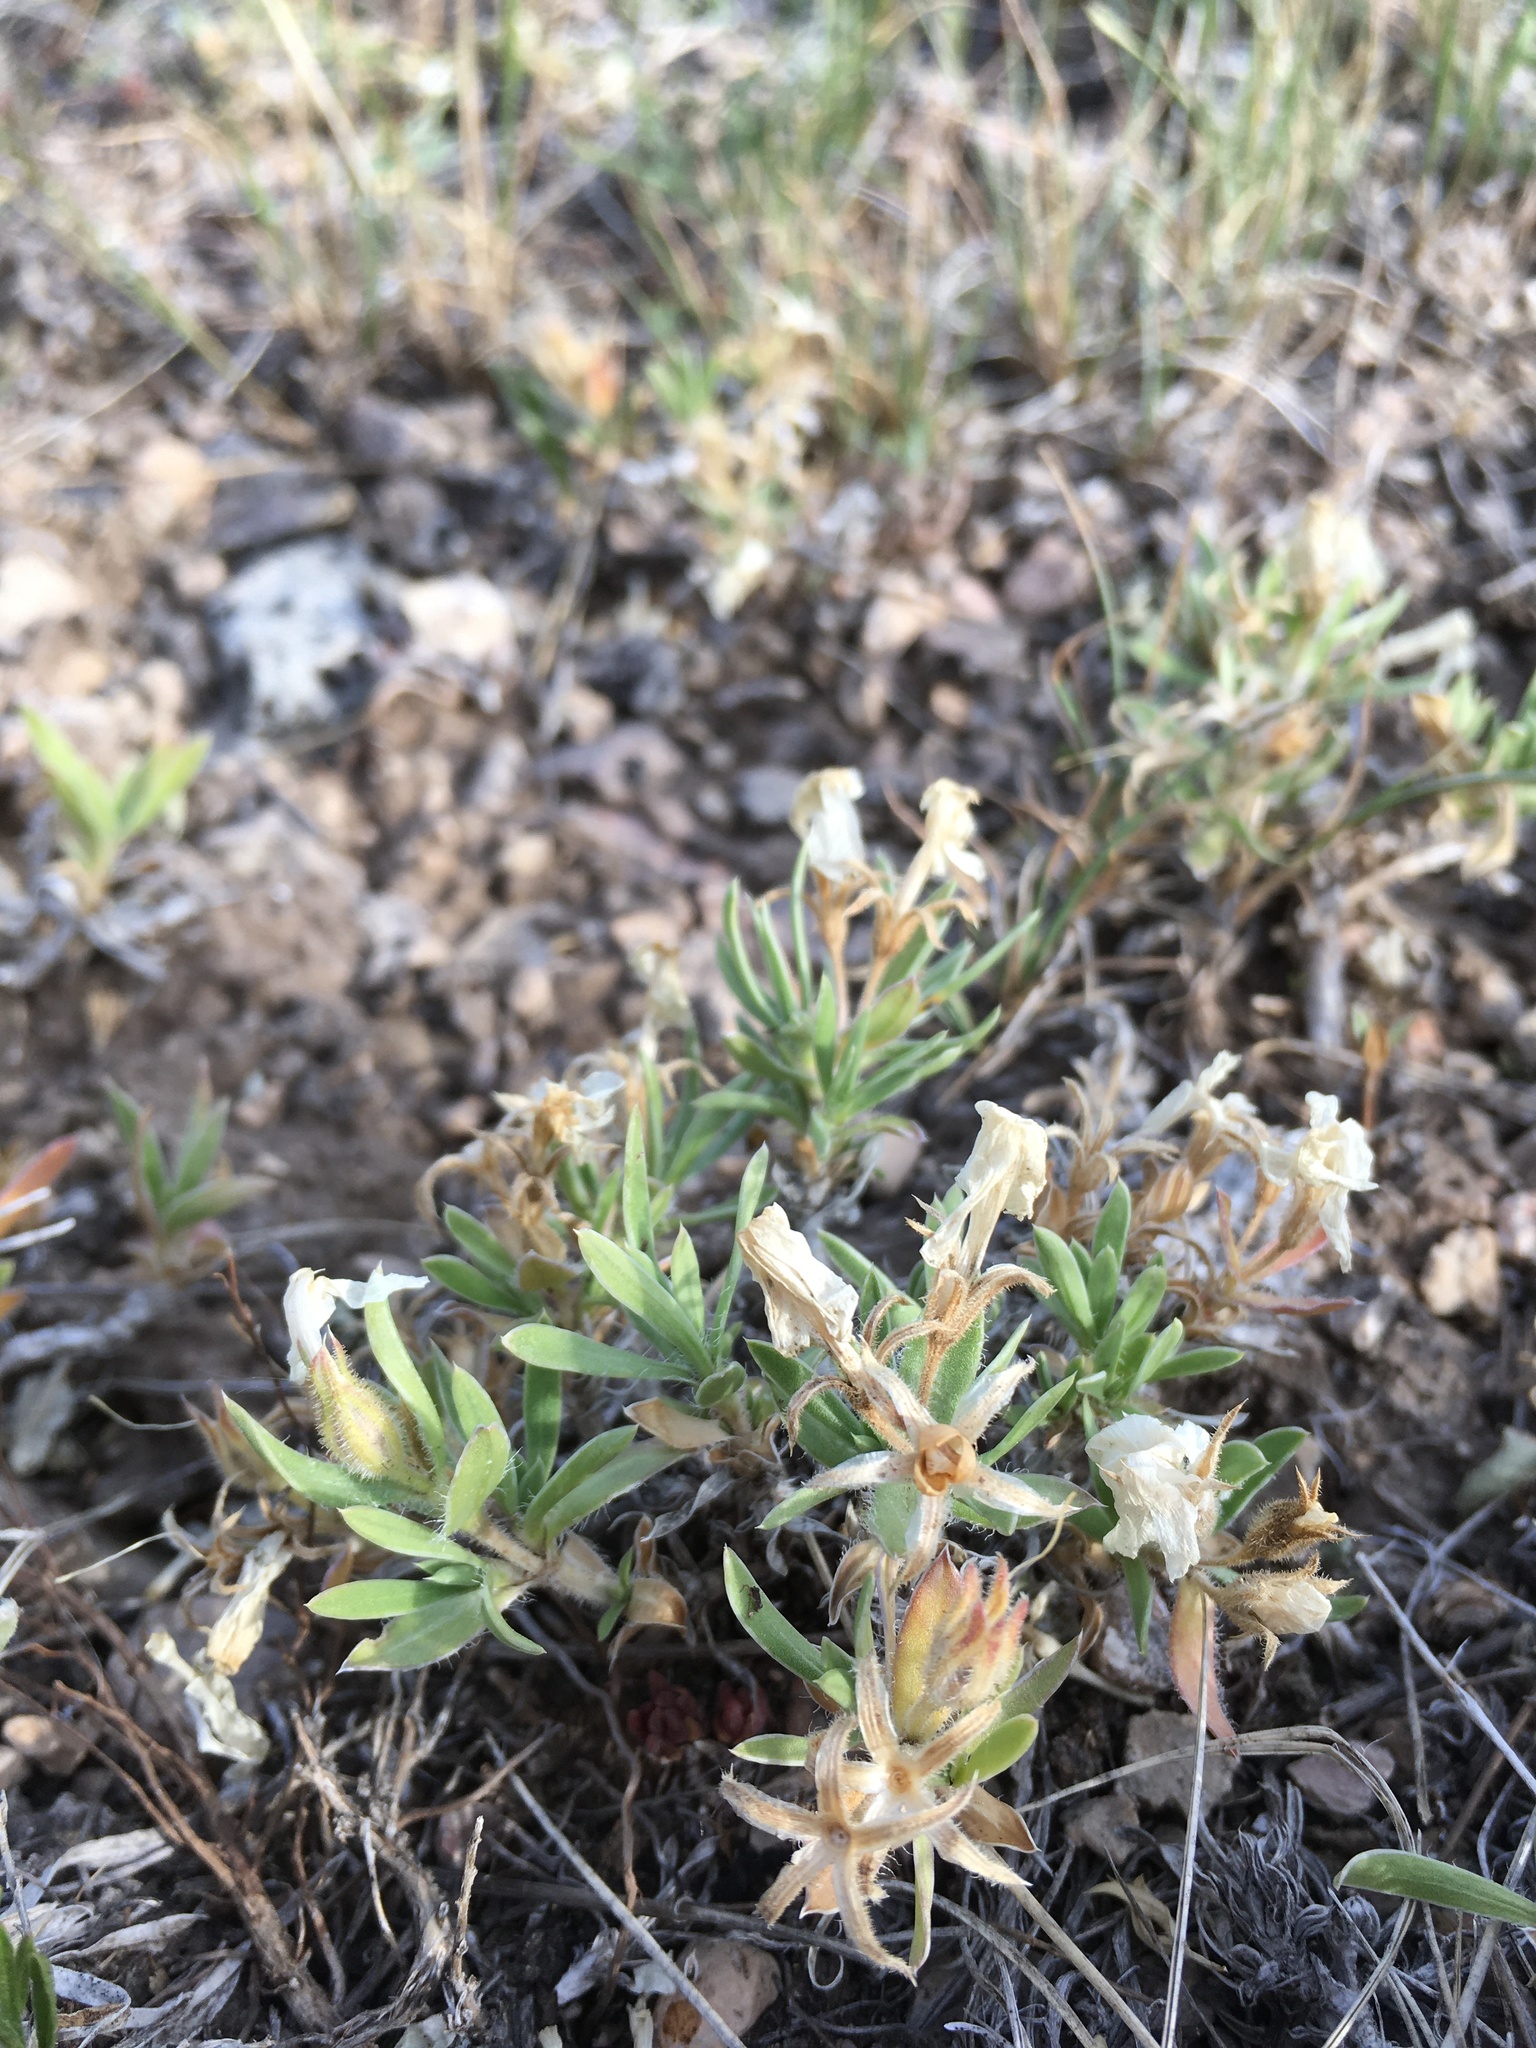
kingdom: Plantae
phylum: Tracheophyta
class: Magnoliopsida
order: Ericales
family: Polemoniaceae
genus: Phlox
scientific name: Phlox alyssifolia
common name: Blue phlox
